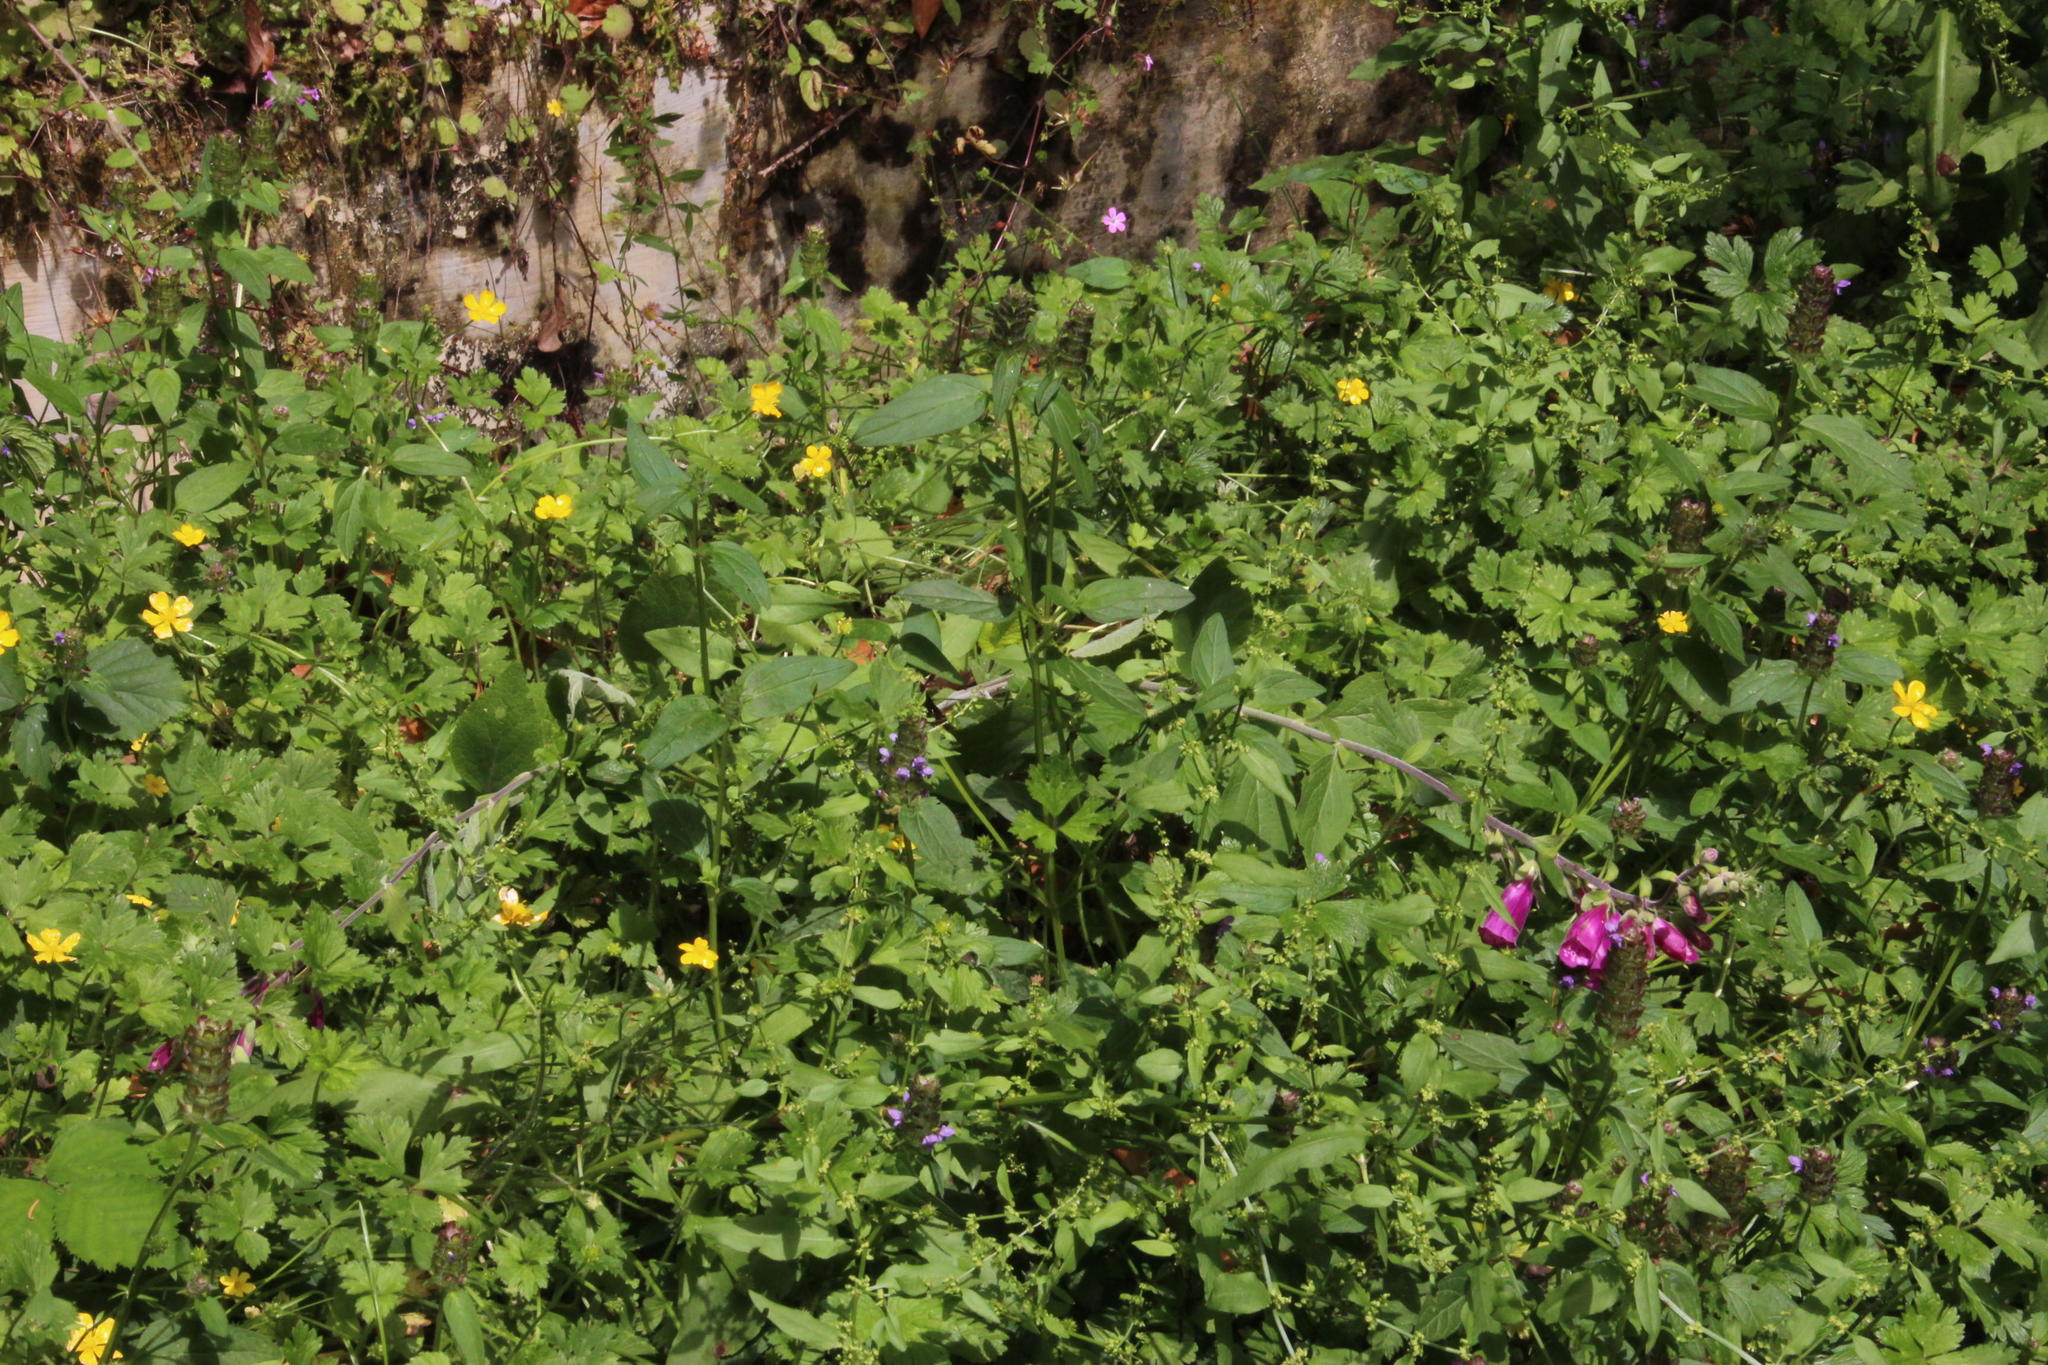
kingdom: Plantae
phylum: Tracheophyta
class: Magnoliopsida
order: Lamiales
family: Plantaginaceae
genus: Digitalis
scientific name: Digitalis purpurea
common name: Foxglove
